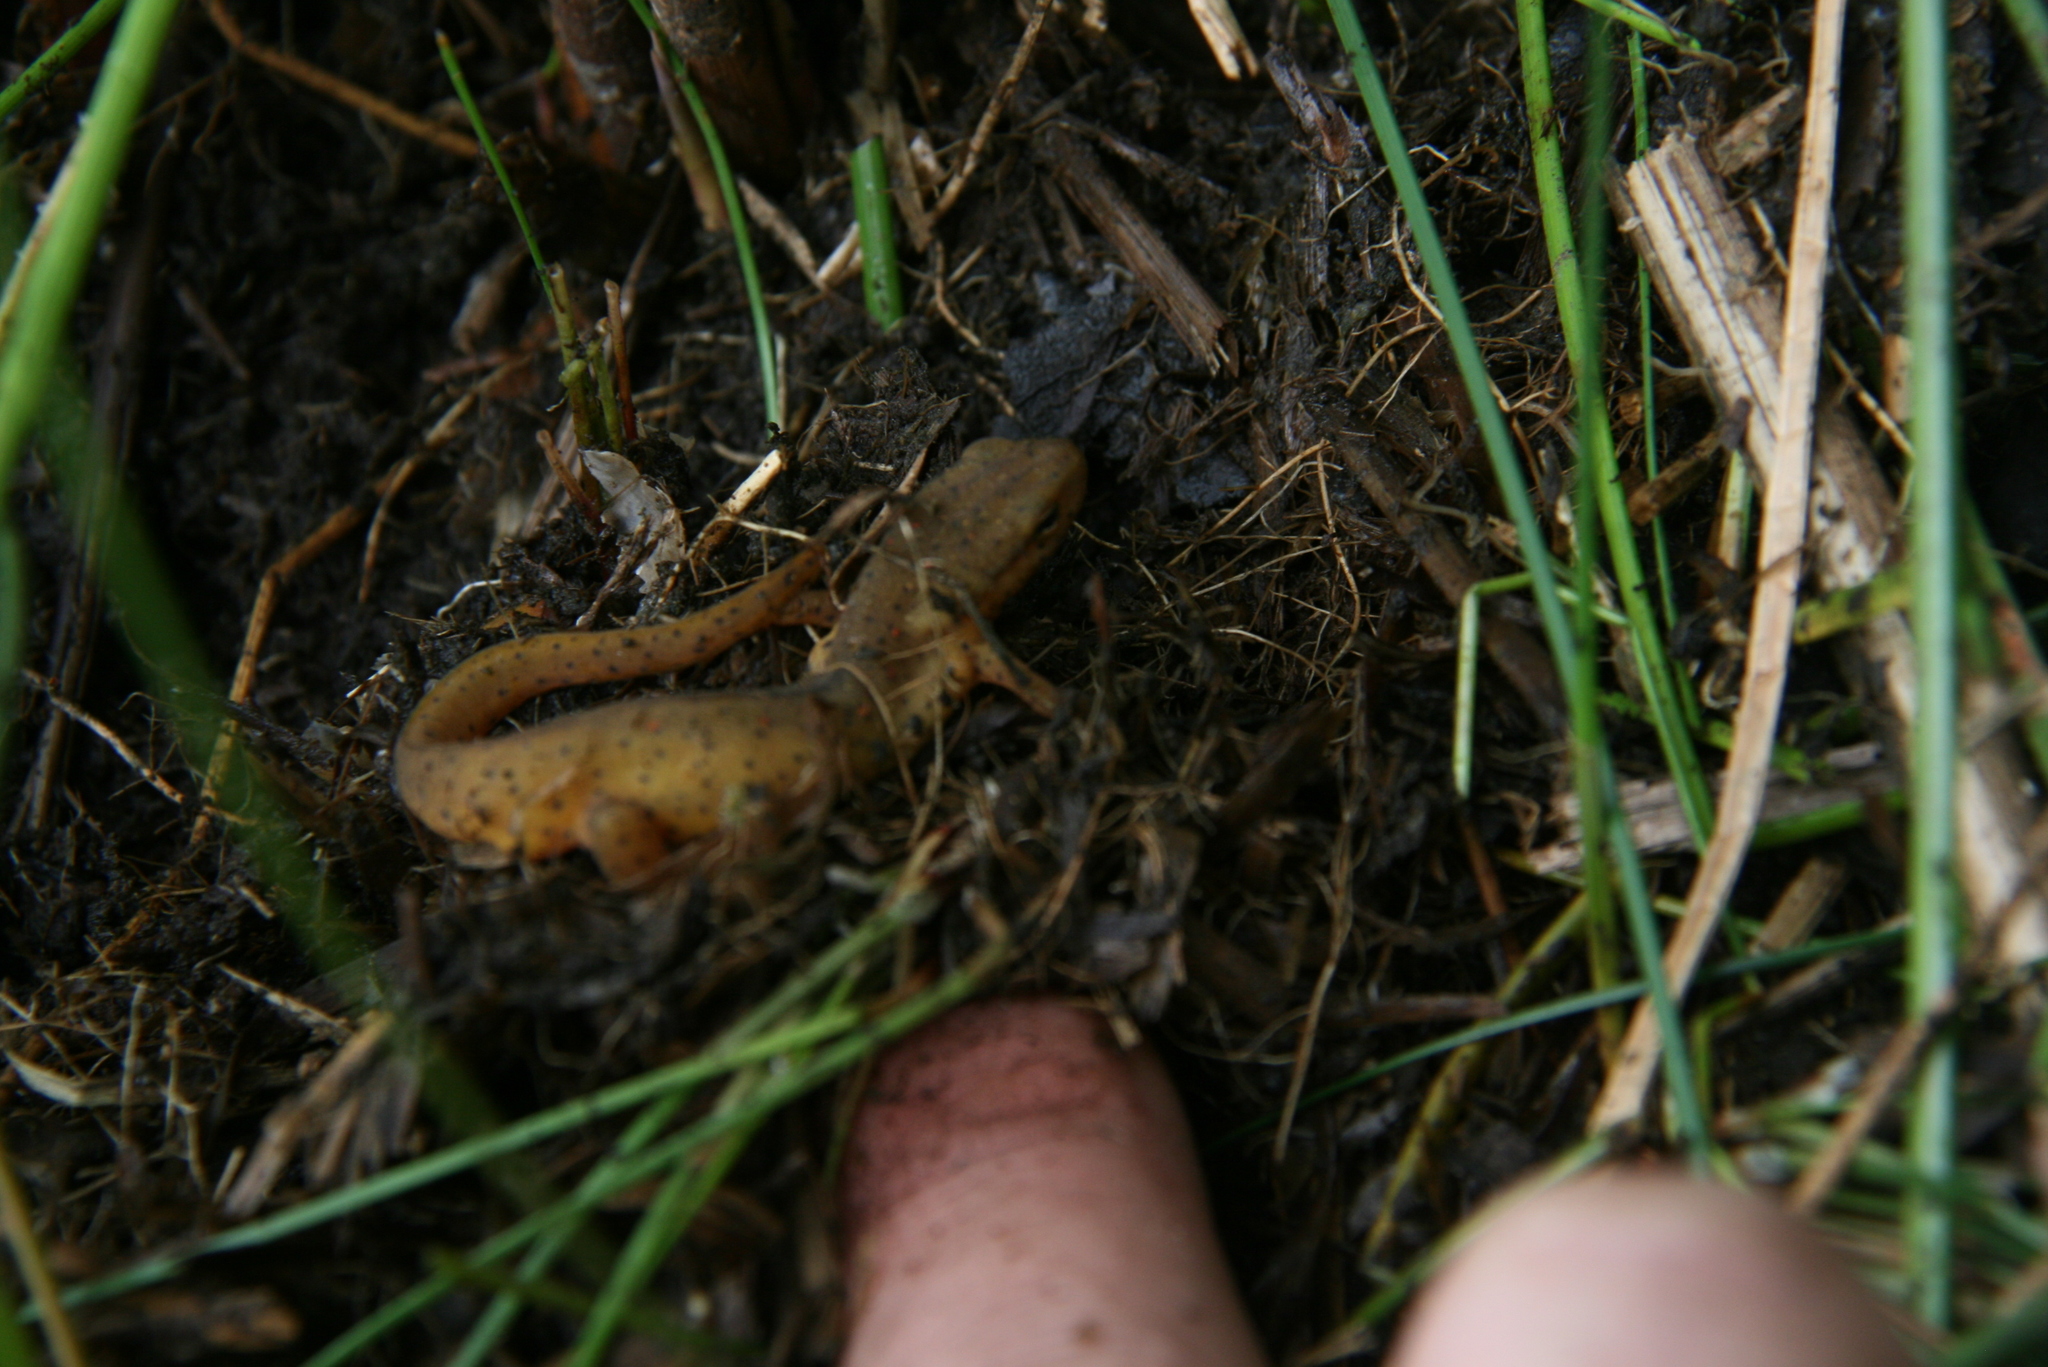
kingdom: Animalia
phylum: Chordata
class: Amphibia
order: Caudata
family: Salamandridae
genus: Notophthalmus
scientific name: Notophthalmus viridescens
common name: Eastern newt
